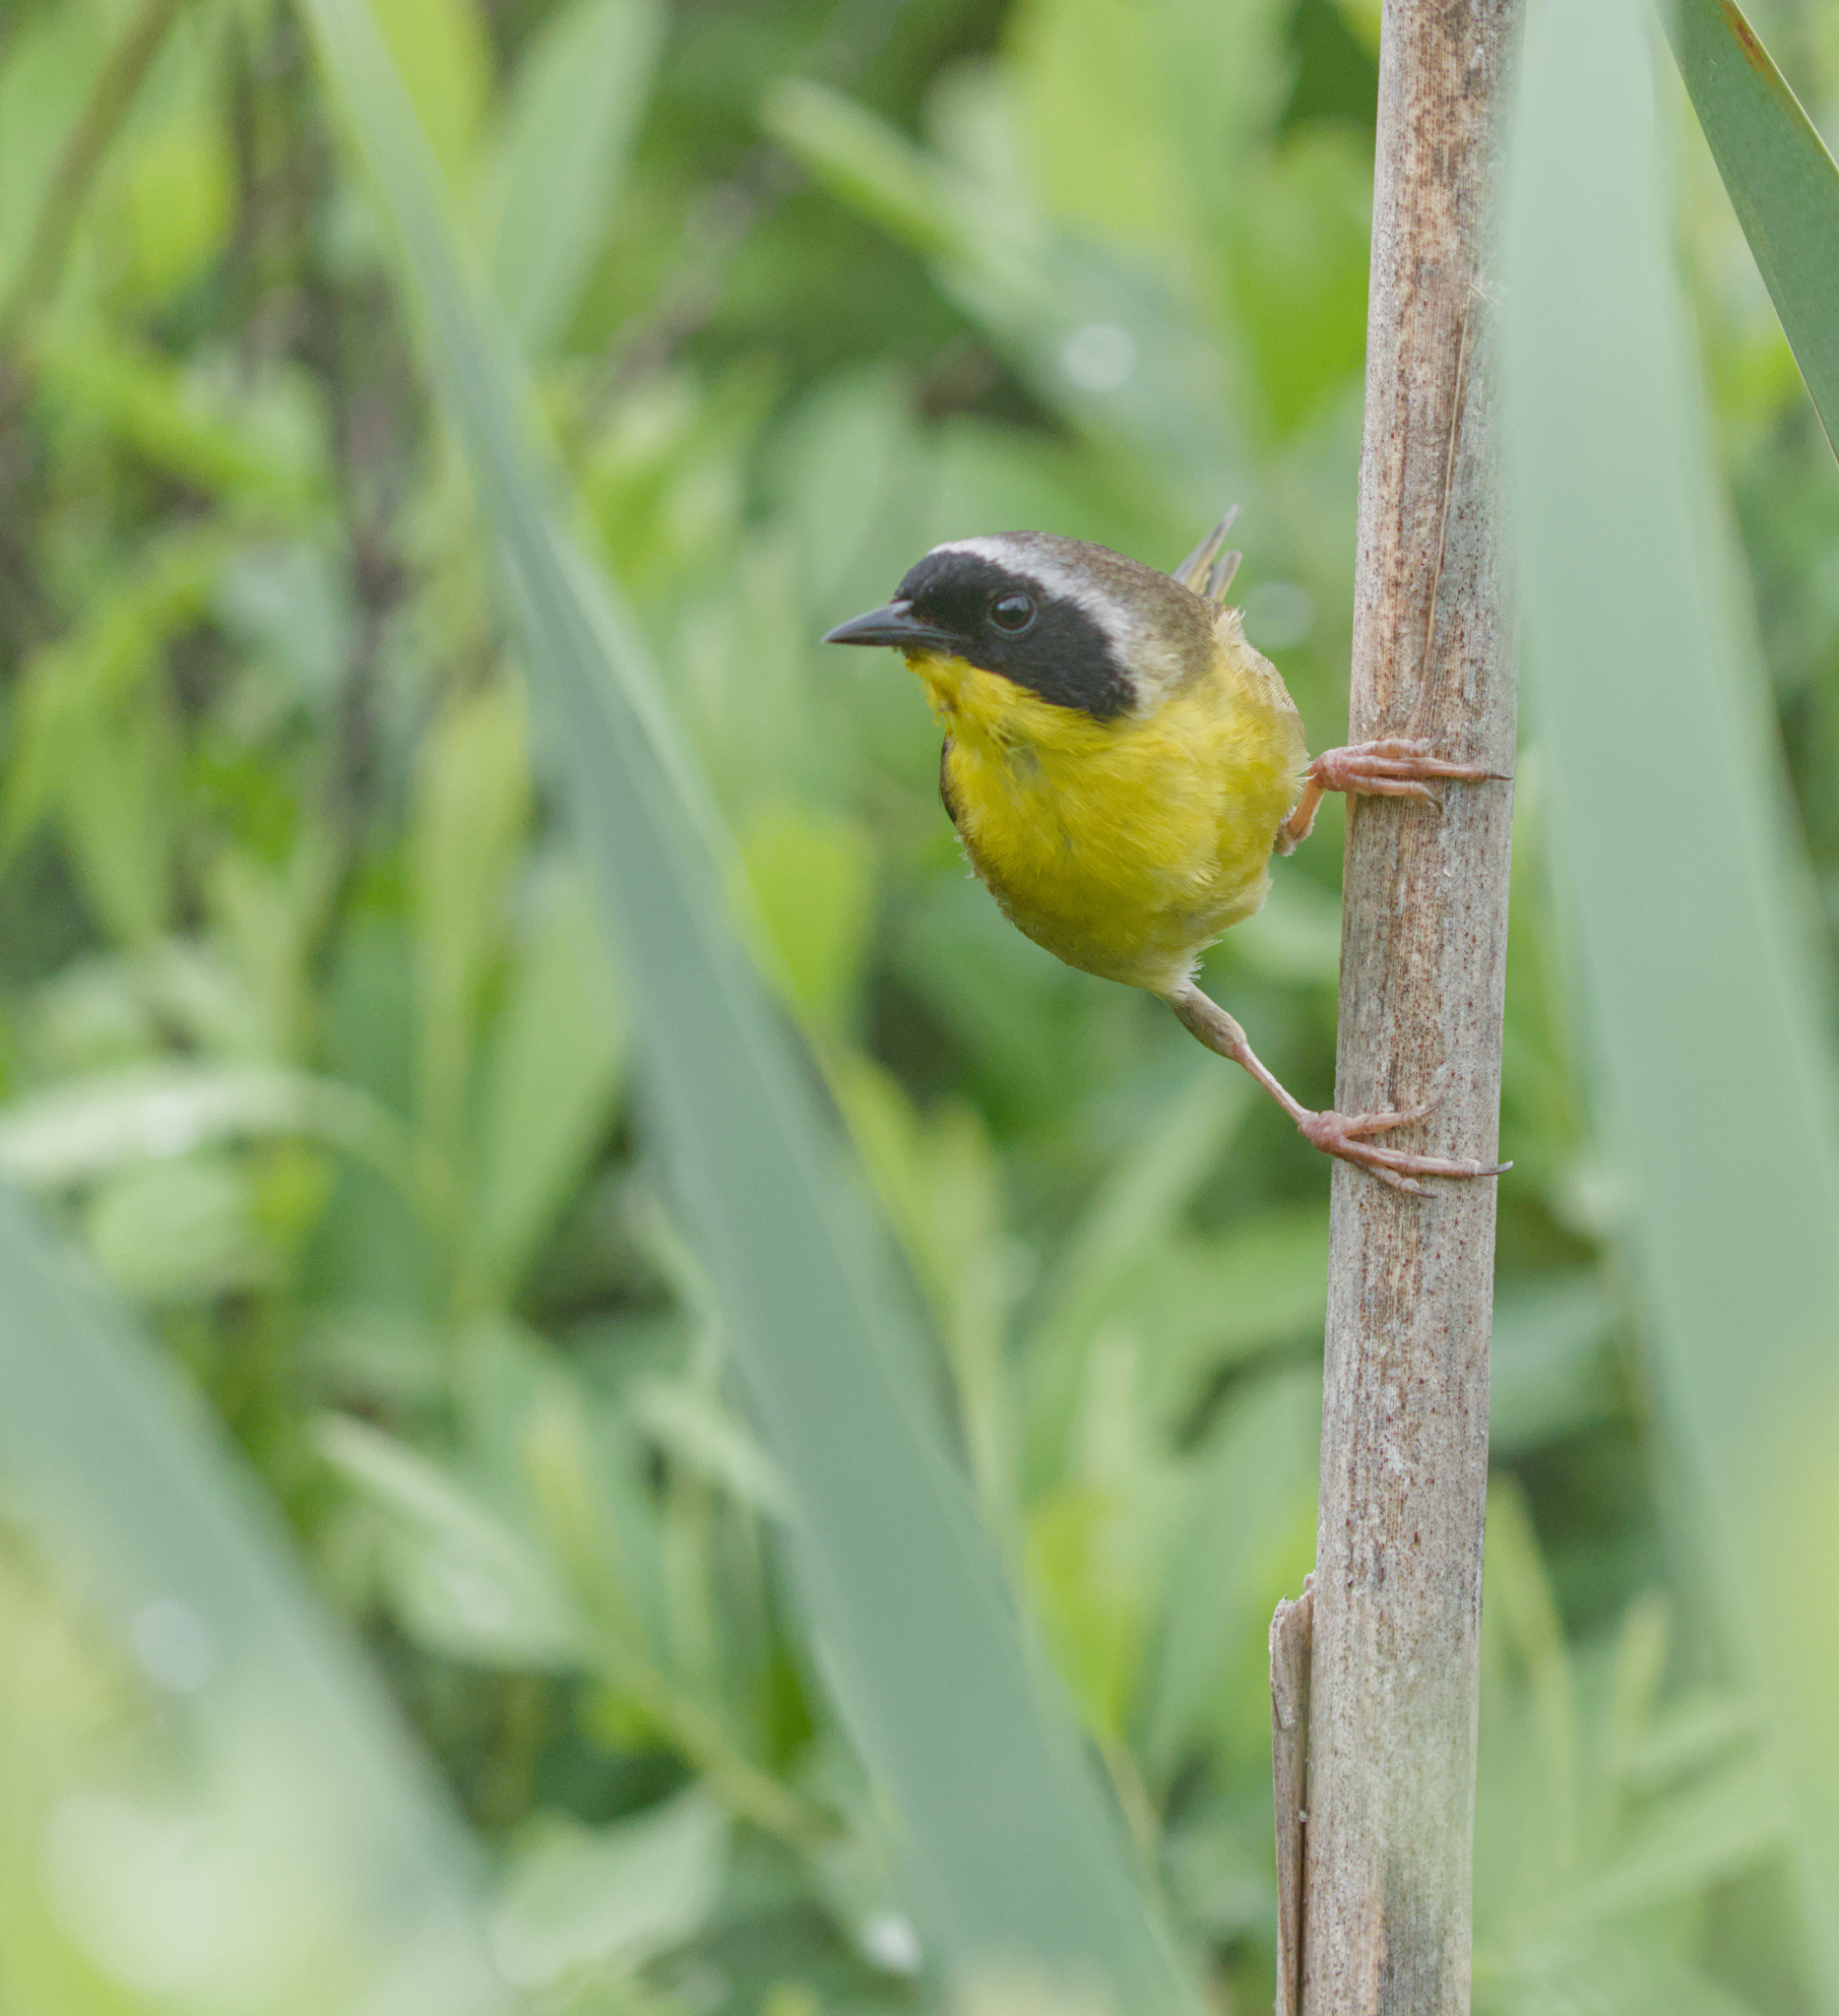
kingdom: Animalia
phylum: Chordata
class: Aves
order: Passeriformes
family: Parulidae
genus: Geothlypis
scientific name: Geothlypis trichas
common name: Common yellowthroat
